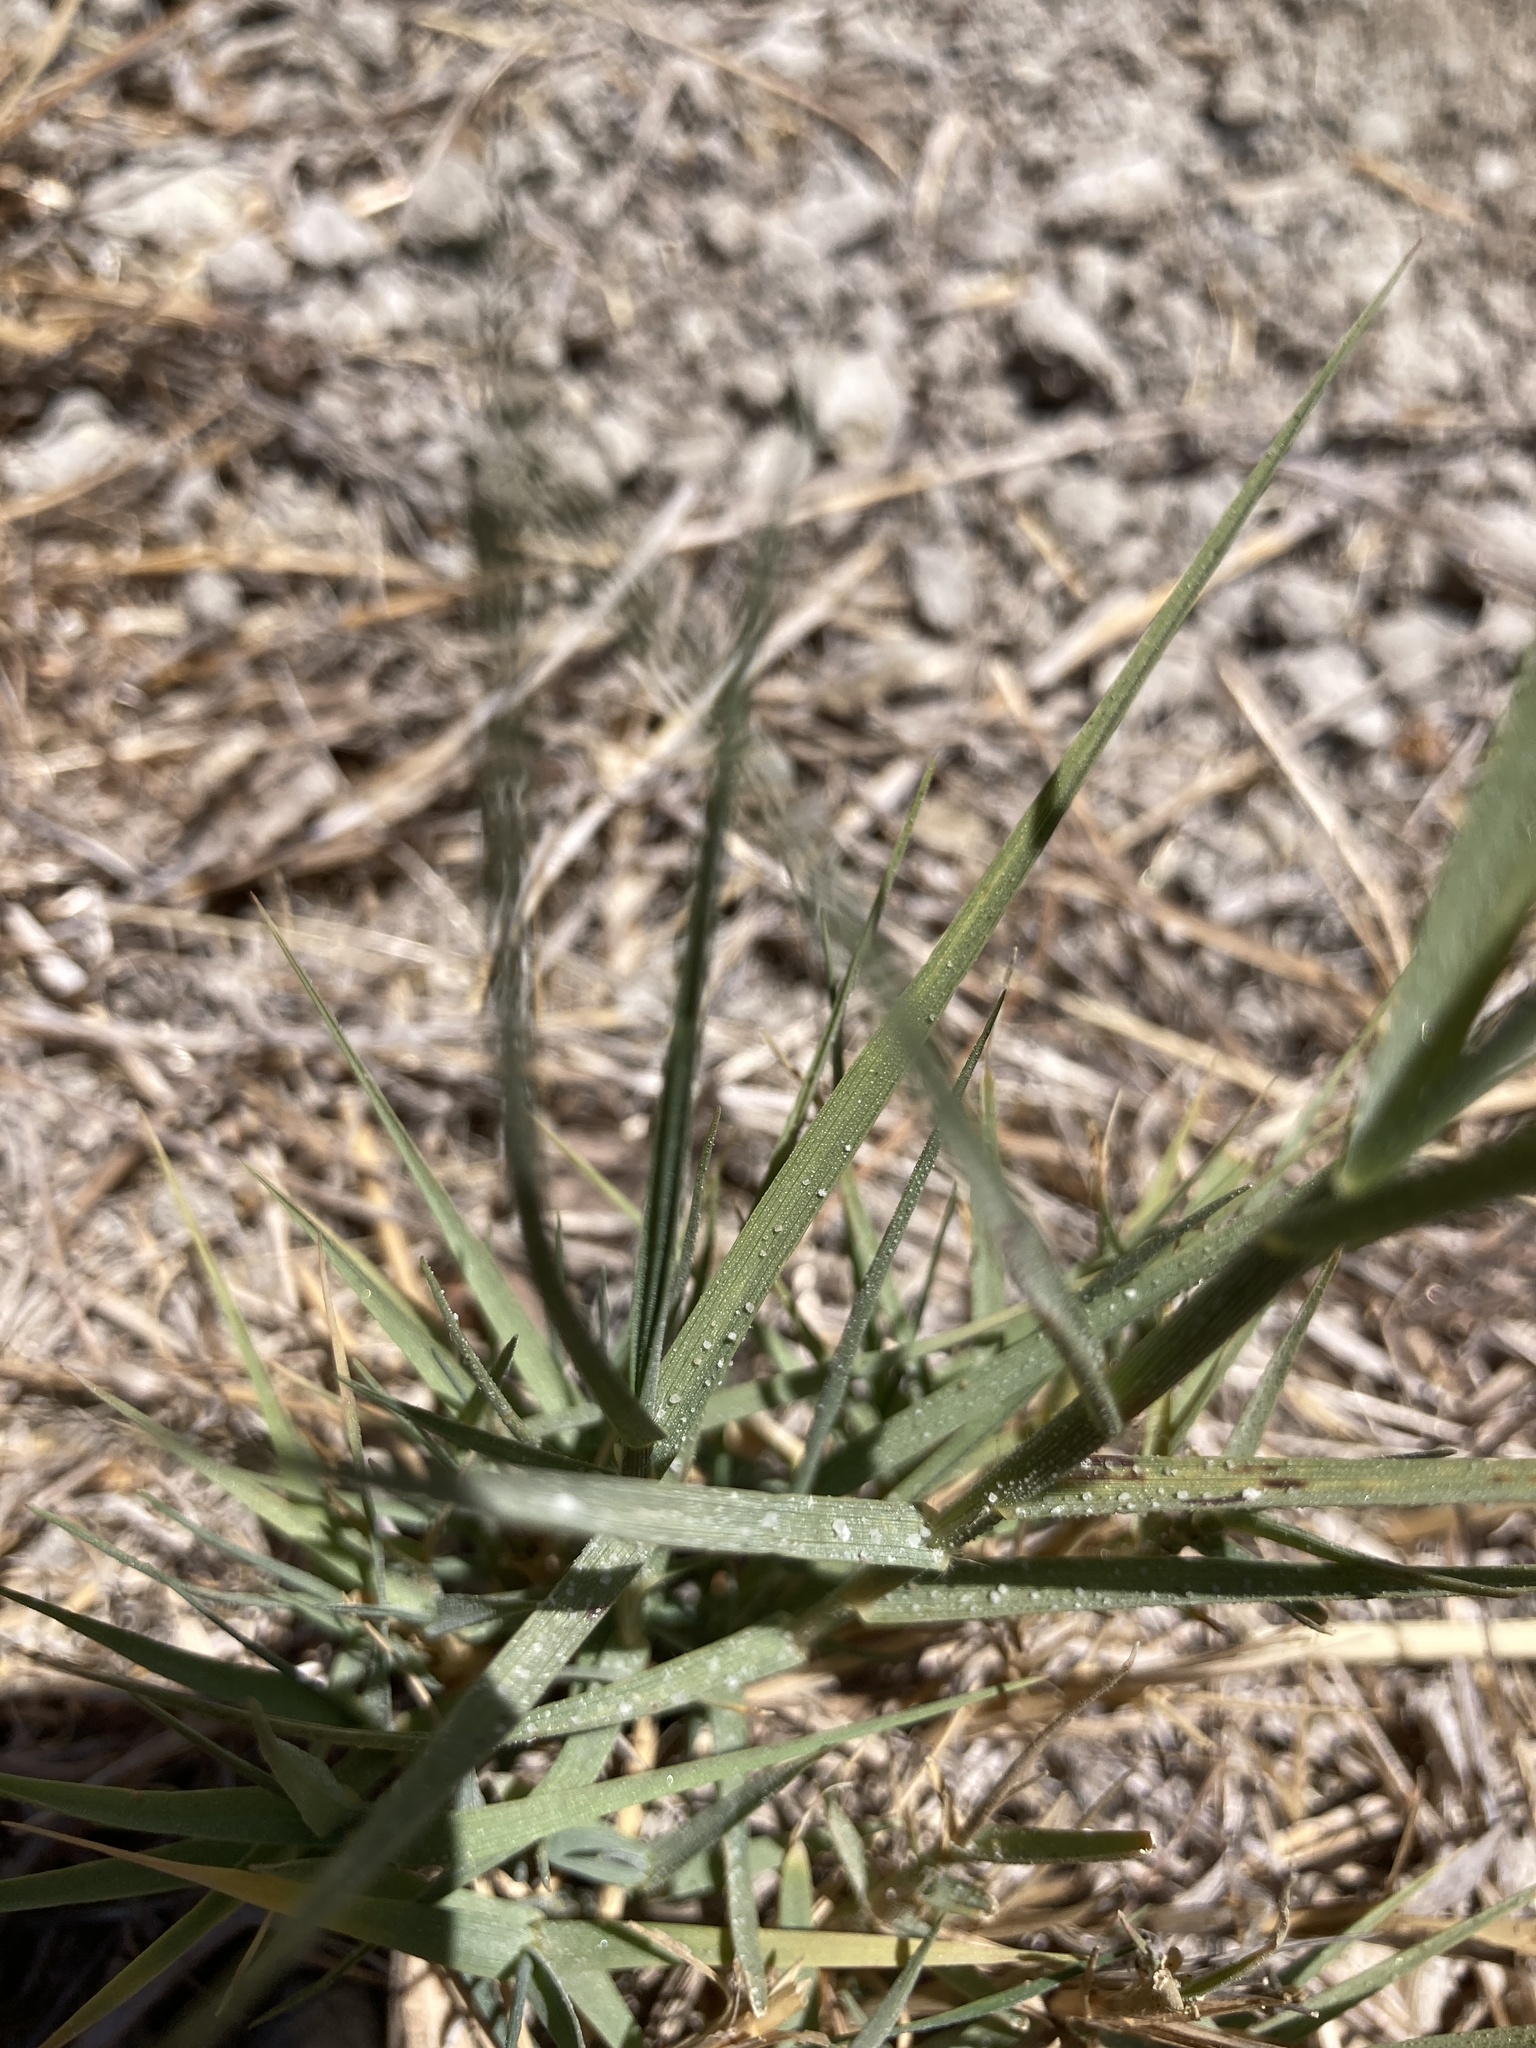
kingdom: Plantae
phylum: Tracheophyta
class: Liliopsida
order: Poales
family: Poaceae
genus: Distichlis
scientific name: Distichlis spicata
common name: Saltgrass
